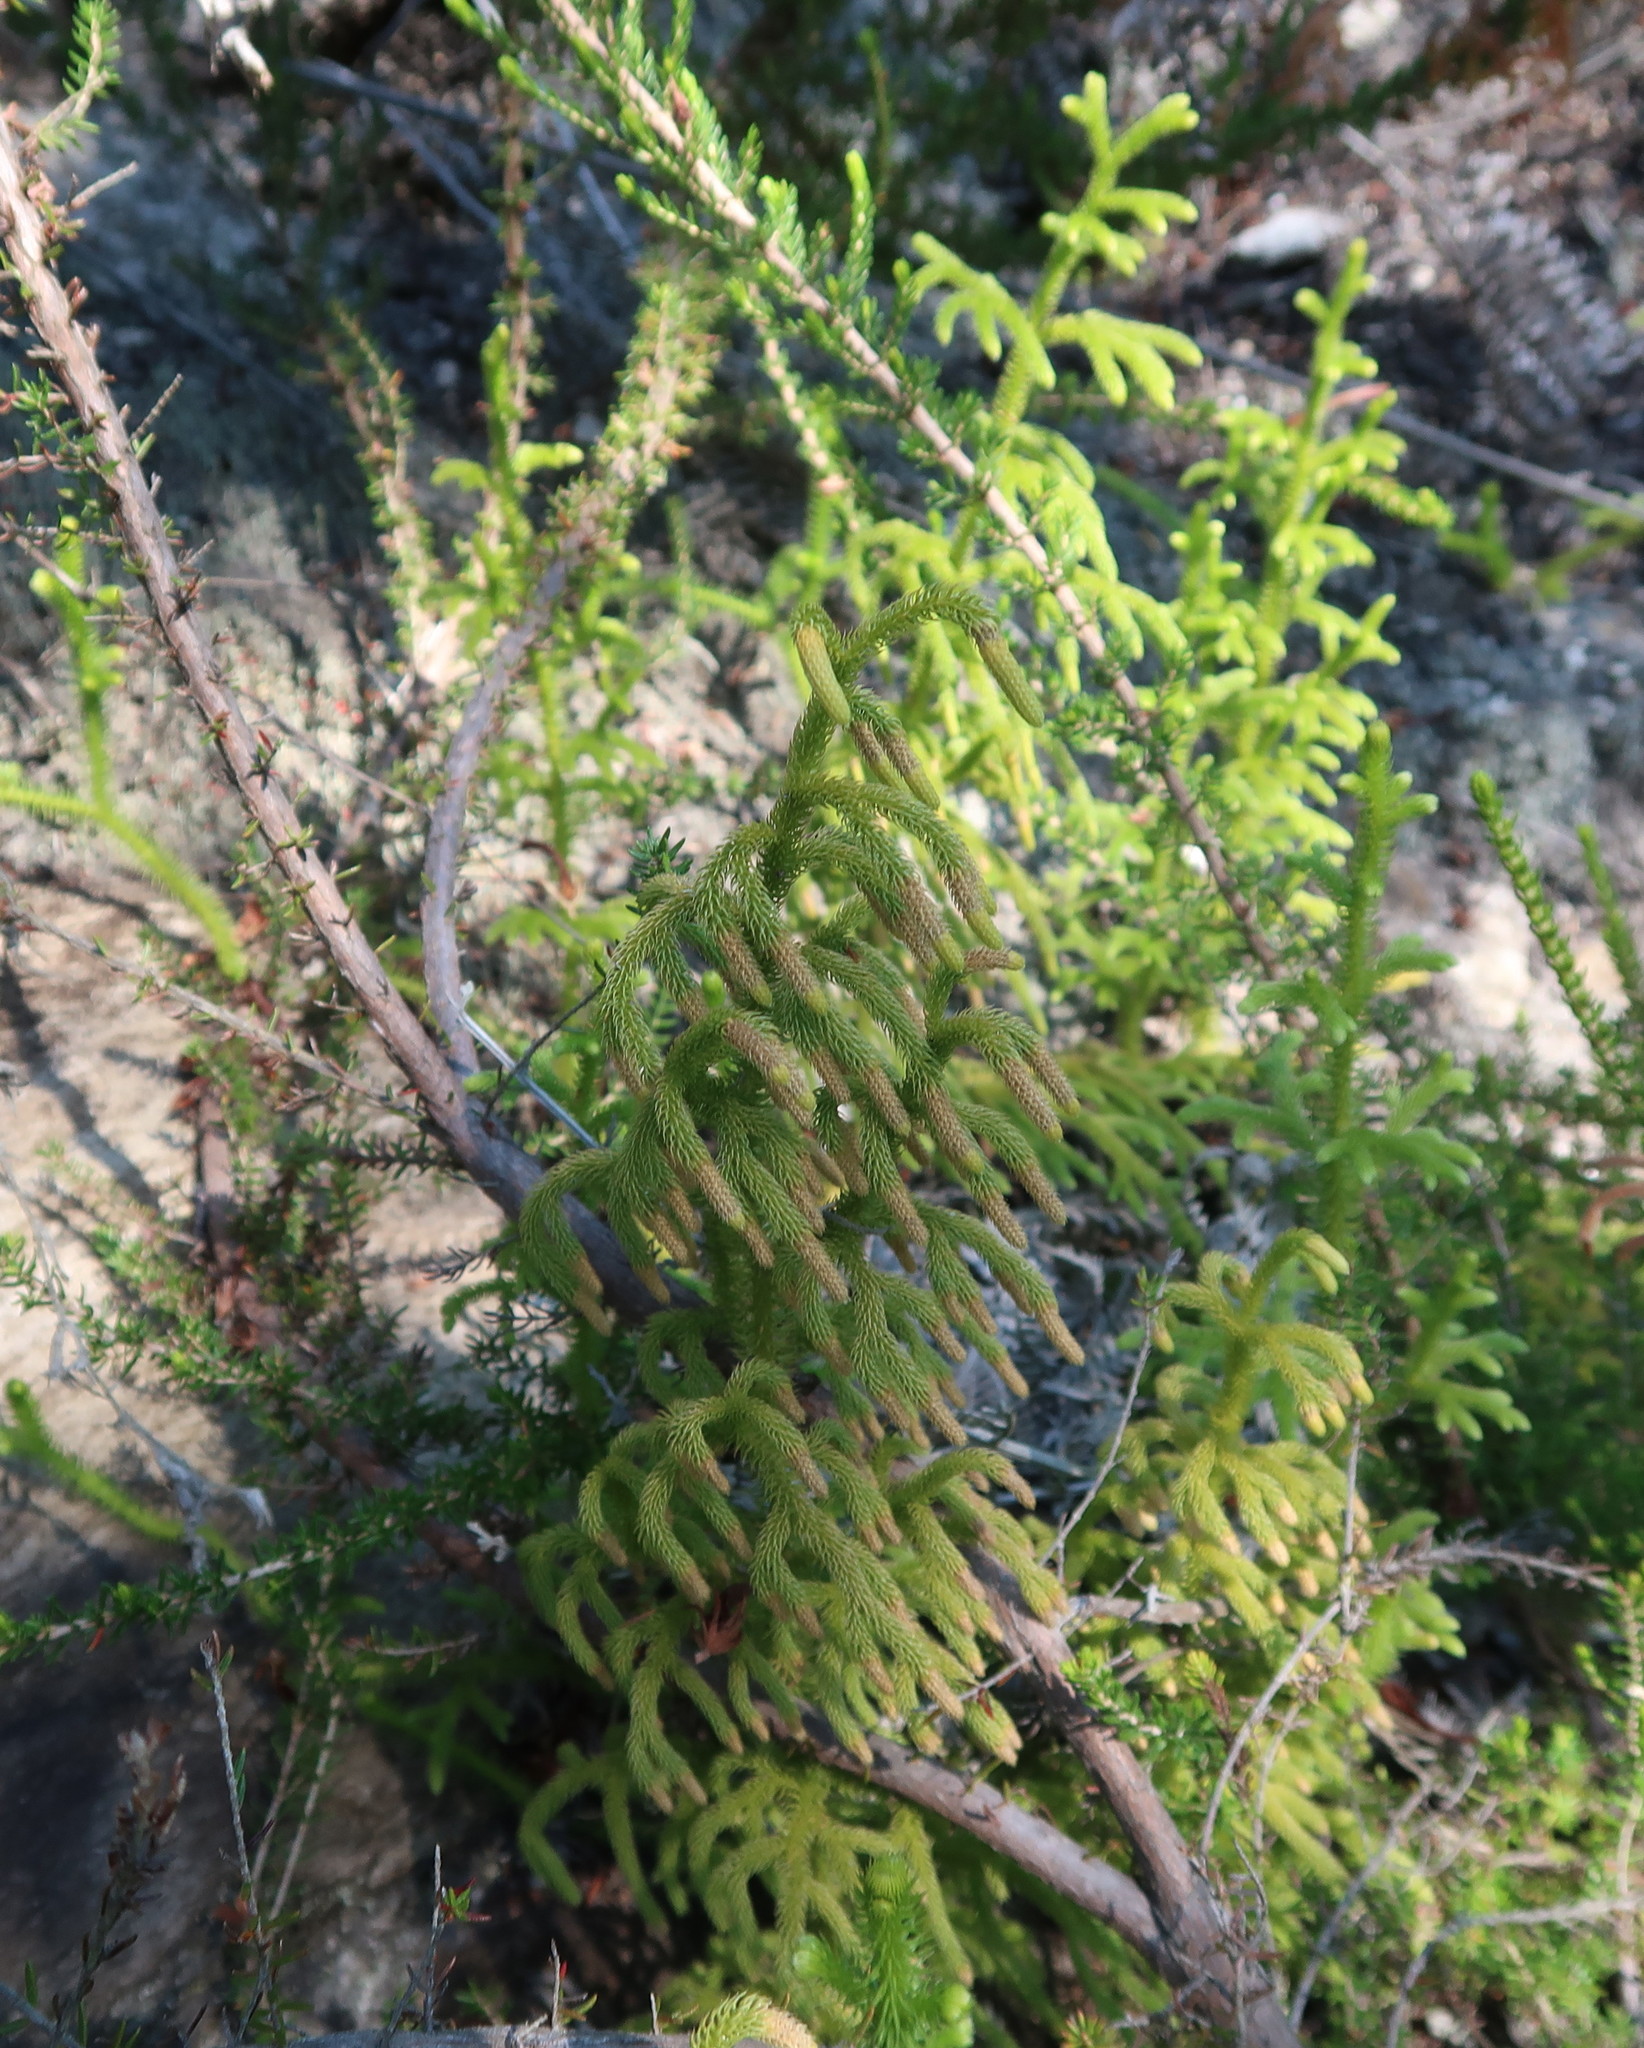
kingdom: Plantae
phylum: Tracheophyta
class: Lycopodiopsida
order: Lycopodiales
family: Lycopodiaceae
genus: Palhinhaea
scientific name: Palhinhaea cernua
